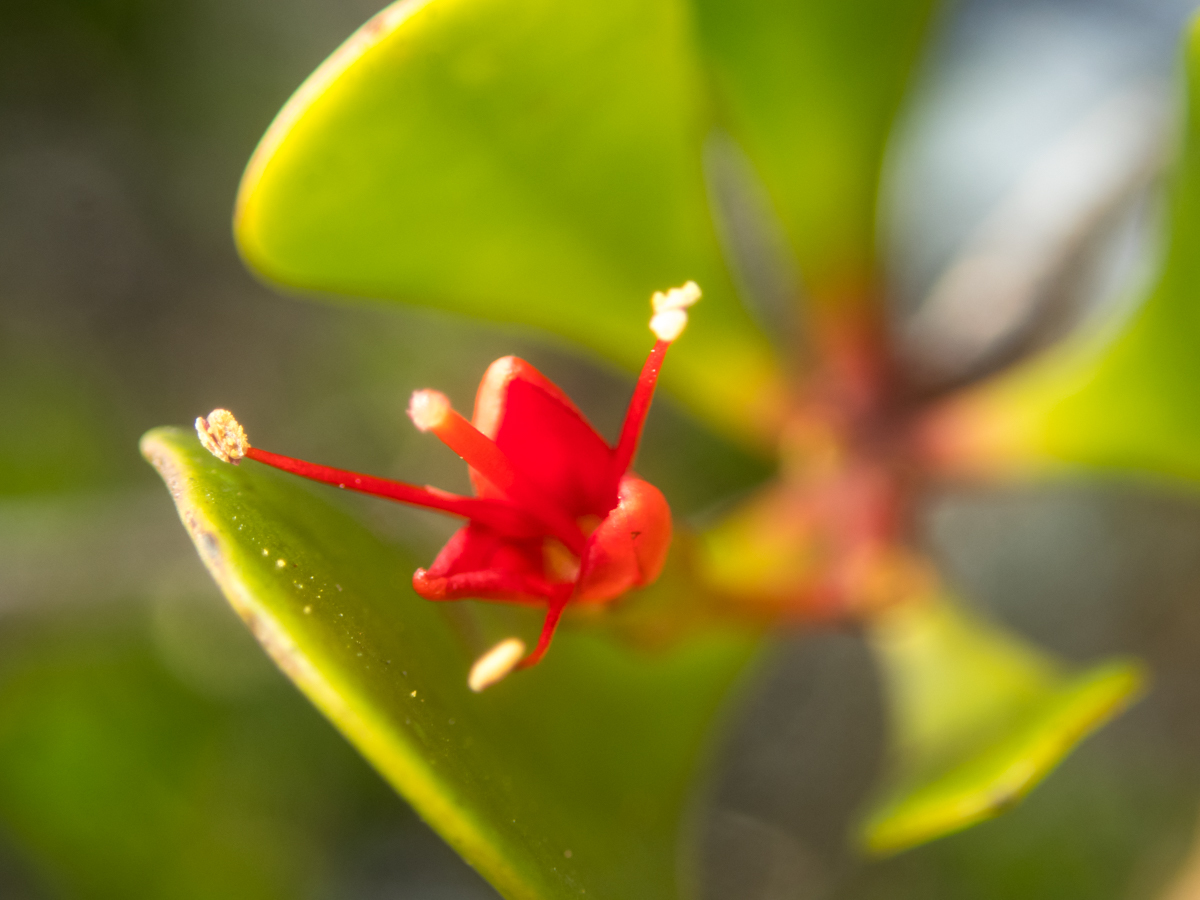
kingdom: Plantae
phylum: Tracheophyta
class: Magnoliopsida
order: Myrtales
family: Combretaceae
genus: Lumnitzera
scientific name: Lumnitzera littorea
